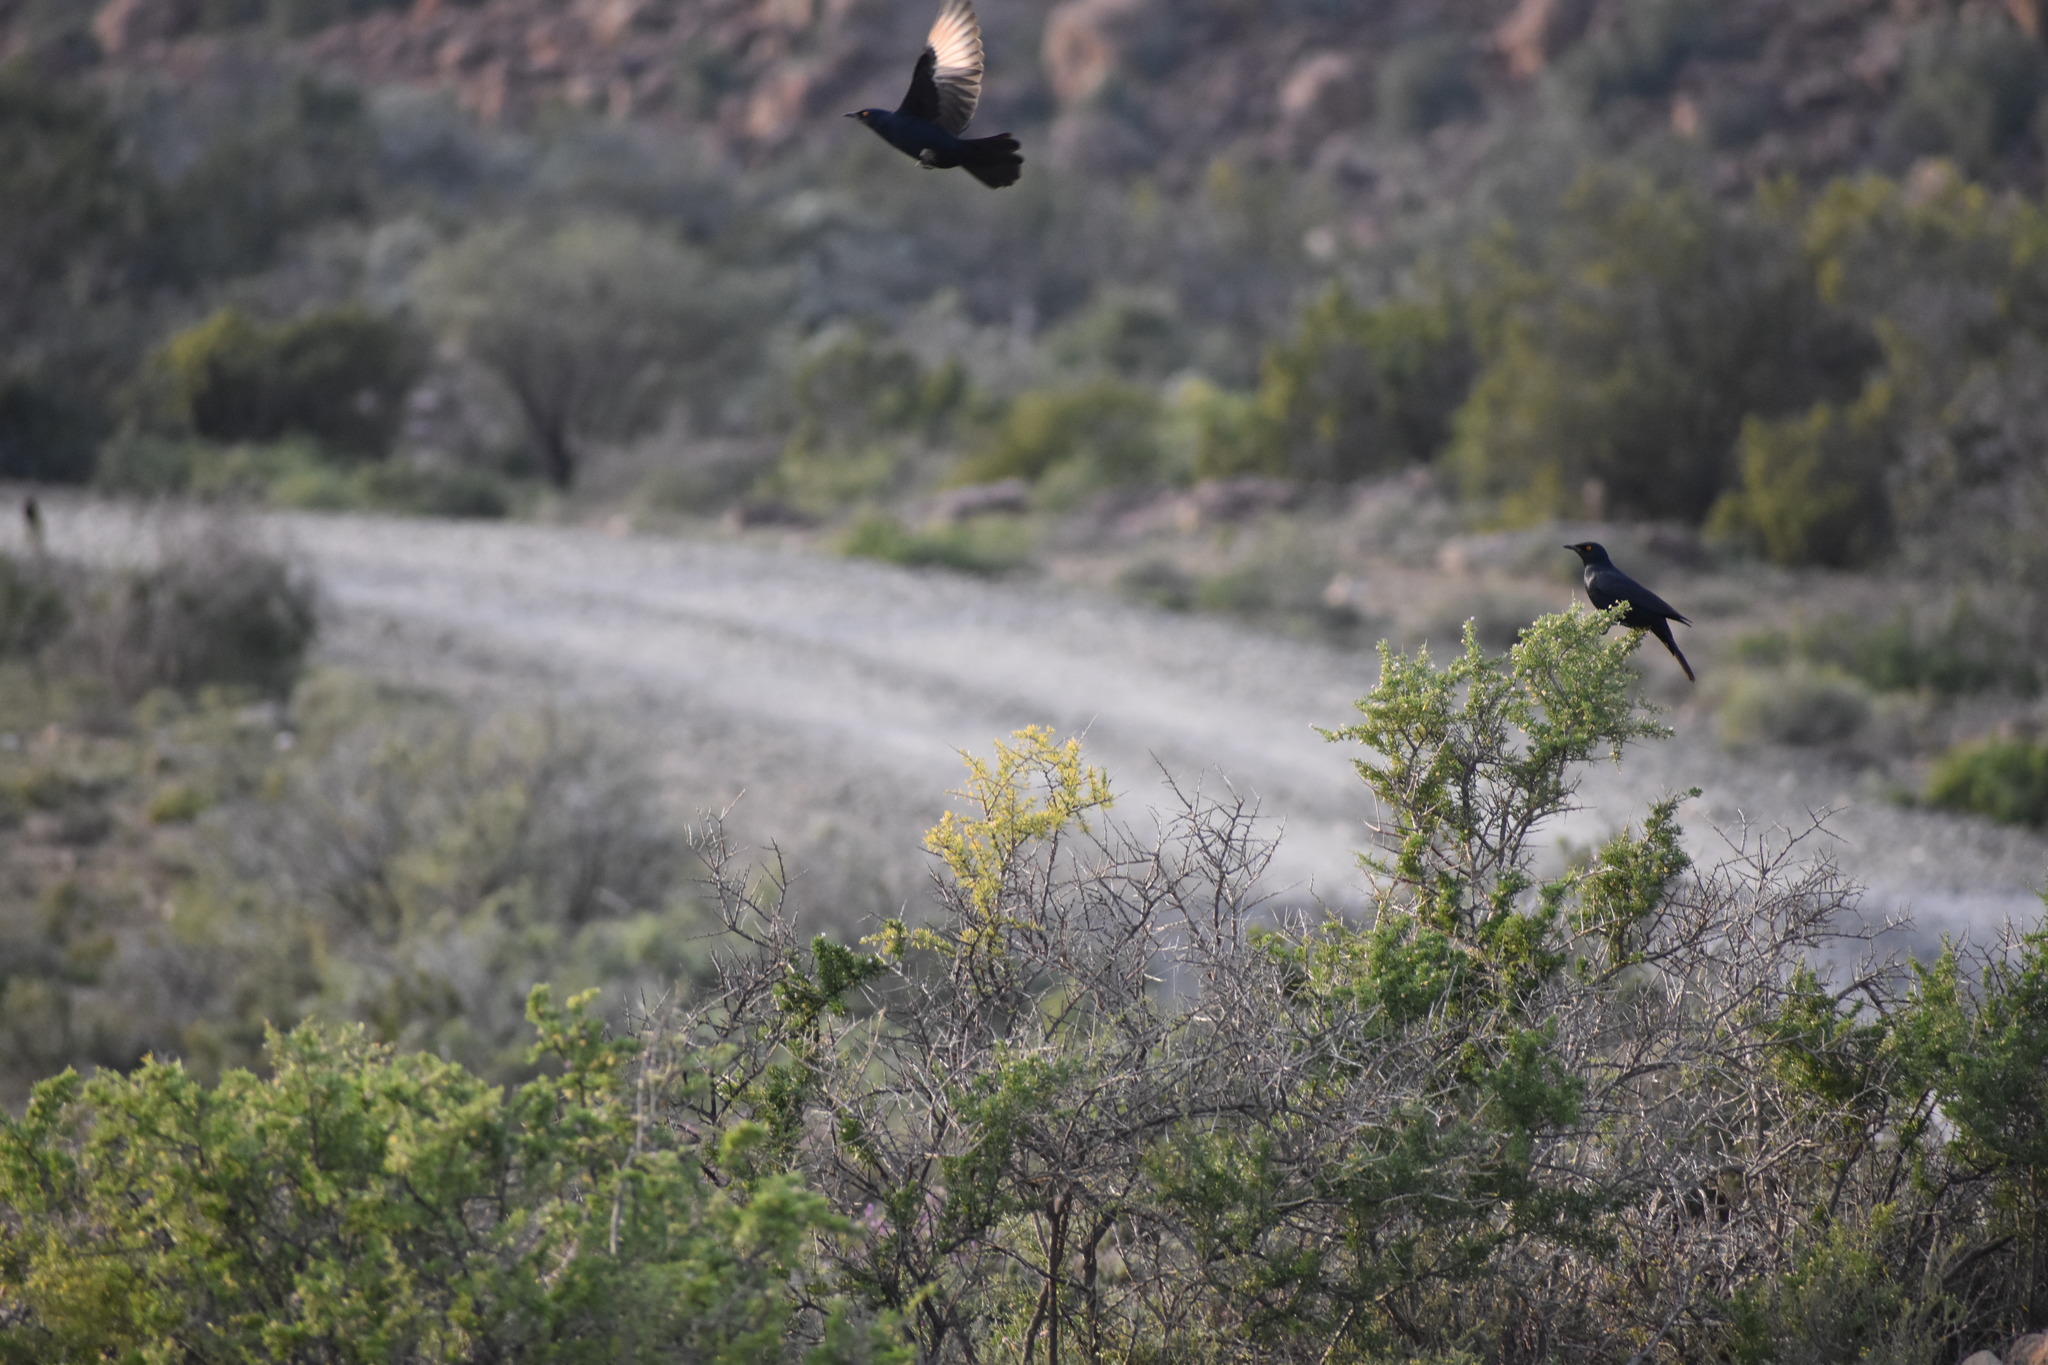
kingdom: Animalia
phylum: Chordata
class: Aves
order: Passeriformes
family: Sturnidae
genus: Onychognathus
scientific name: Onychognathus nabouroup
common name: Pale-winged starling
